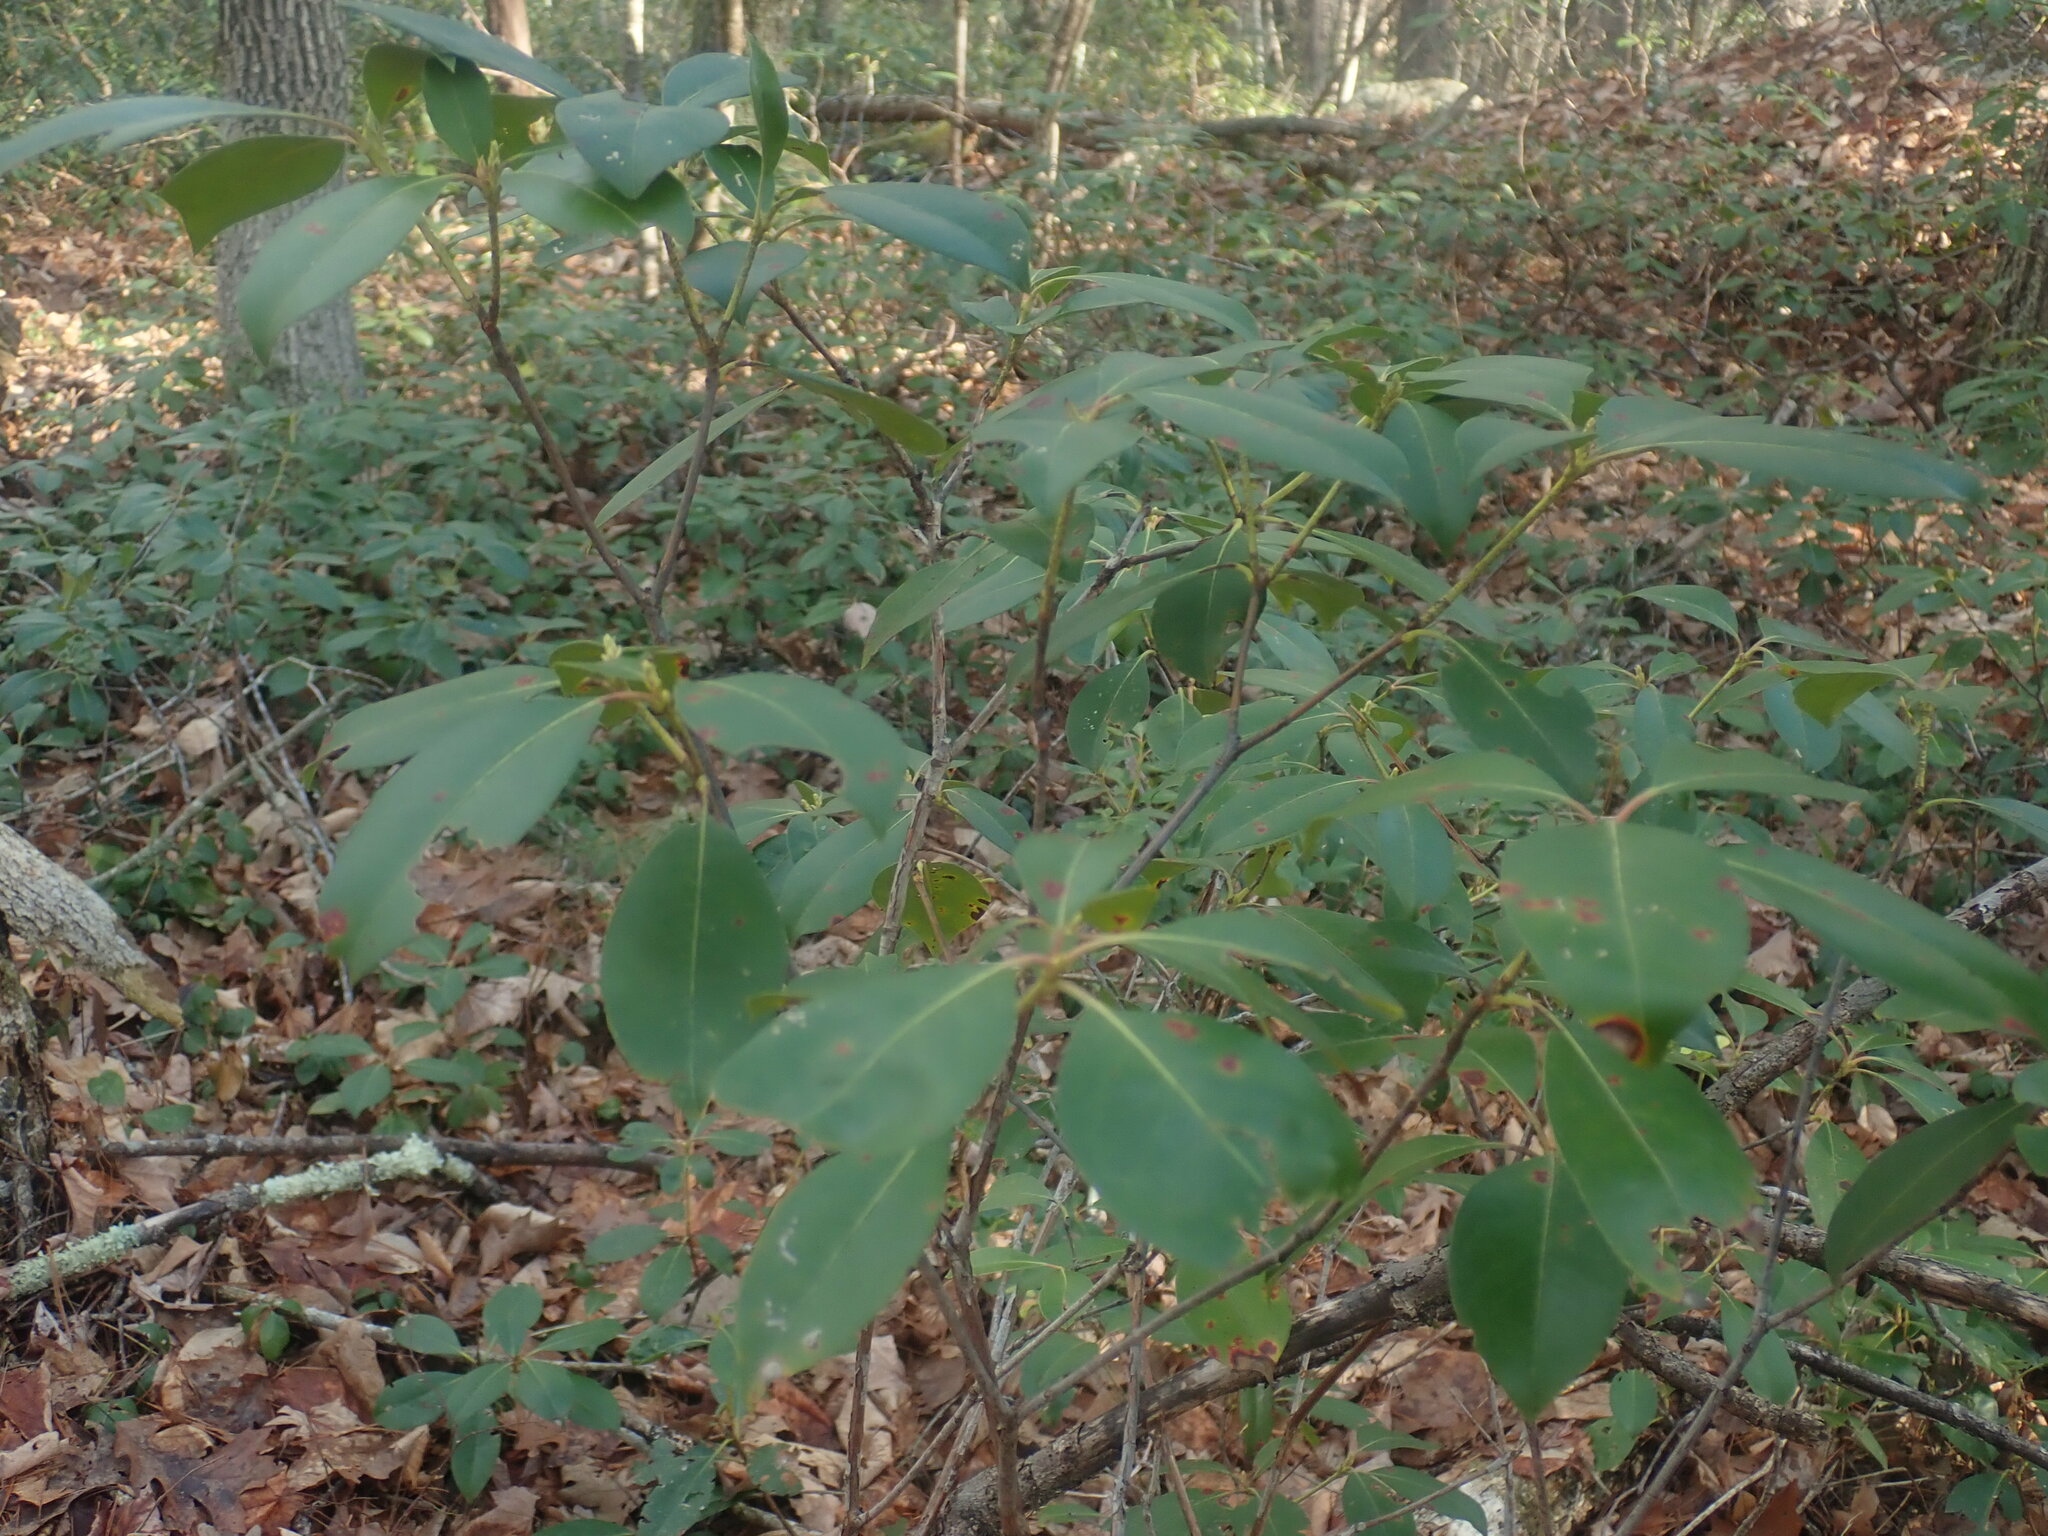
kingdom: Plantae
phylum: Tracheophyta
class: Magnoliopsida
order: Ericales
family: Ericaceae
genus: Kalmia
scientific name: Kalmia latifolia
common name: Mountain-laurel
